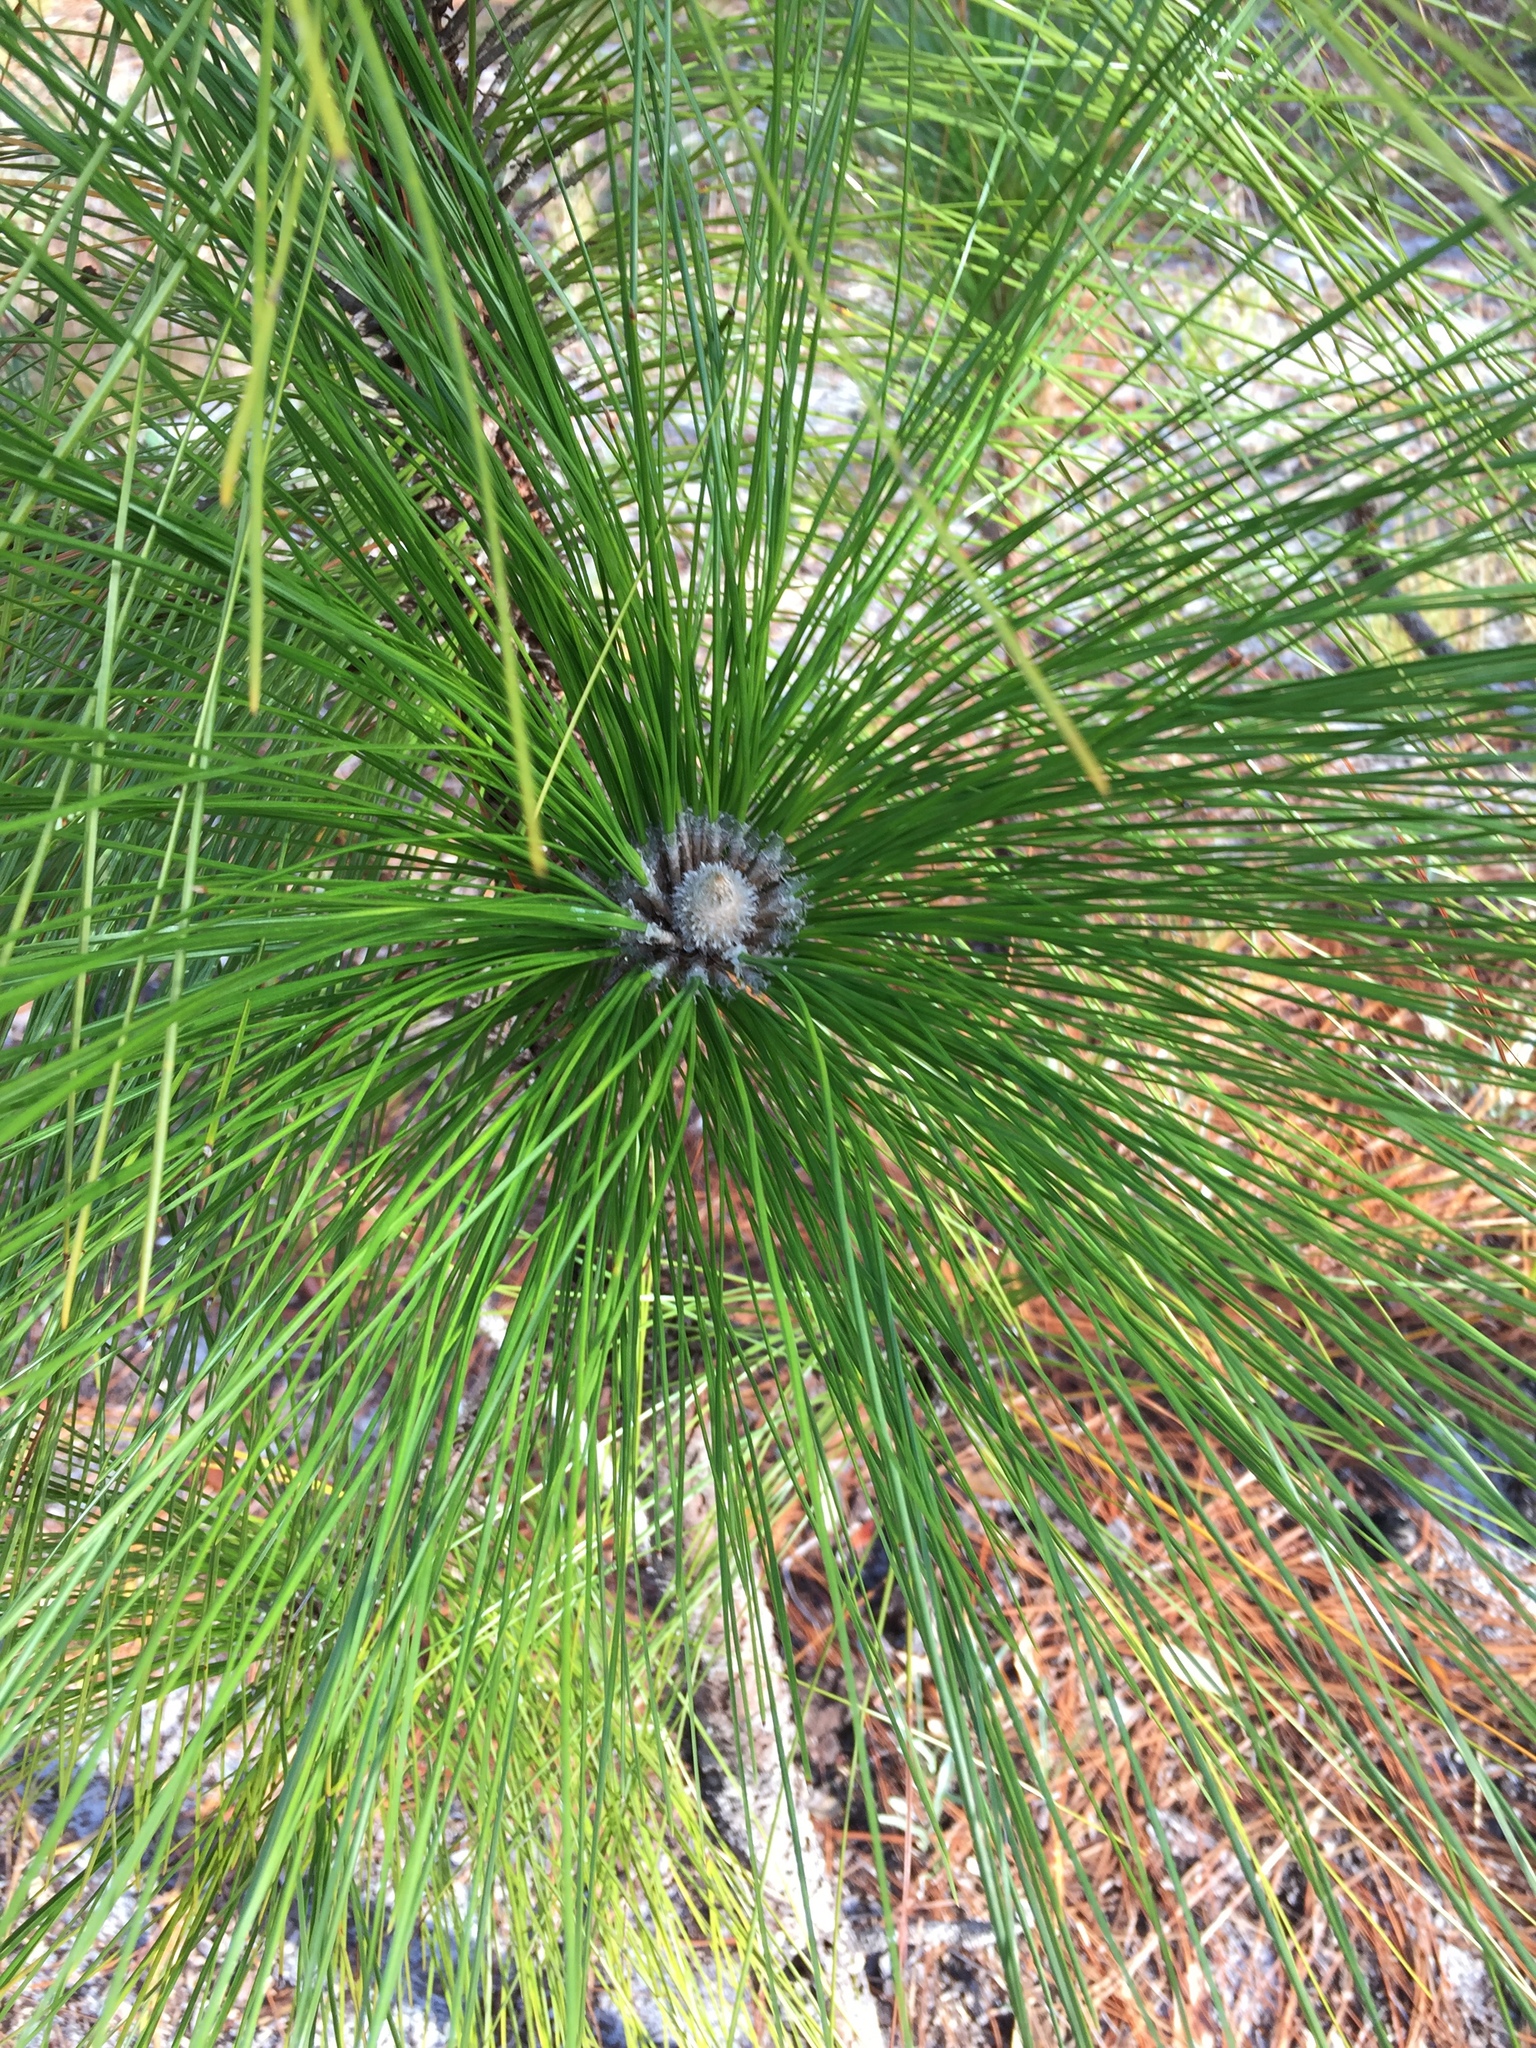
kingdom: Plantae
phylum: Tracheophyta
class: Pinopsida
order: Pinales
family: Pinaceae
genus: Pinus
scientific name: Pinus palustris
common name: Longleaf pine
